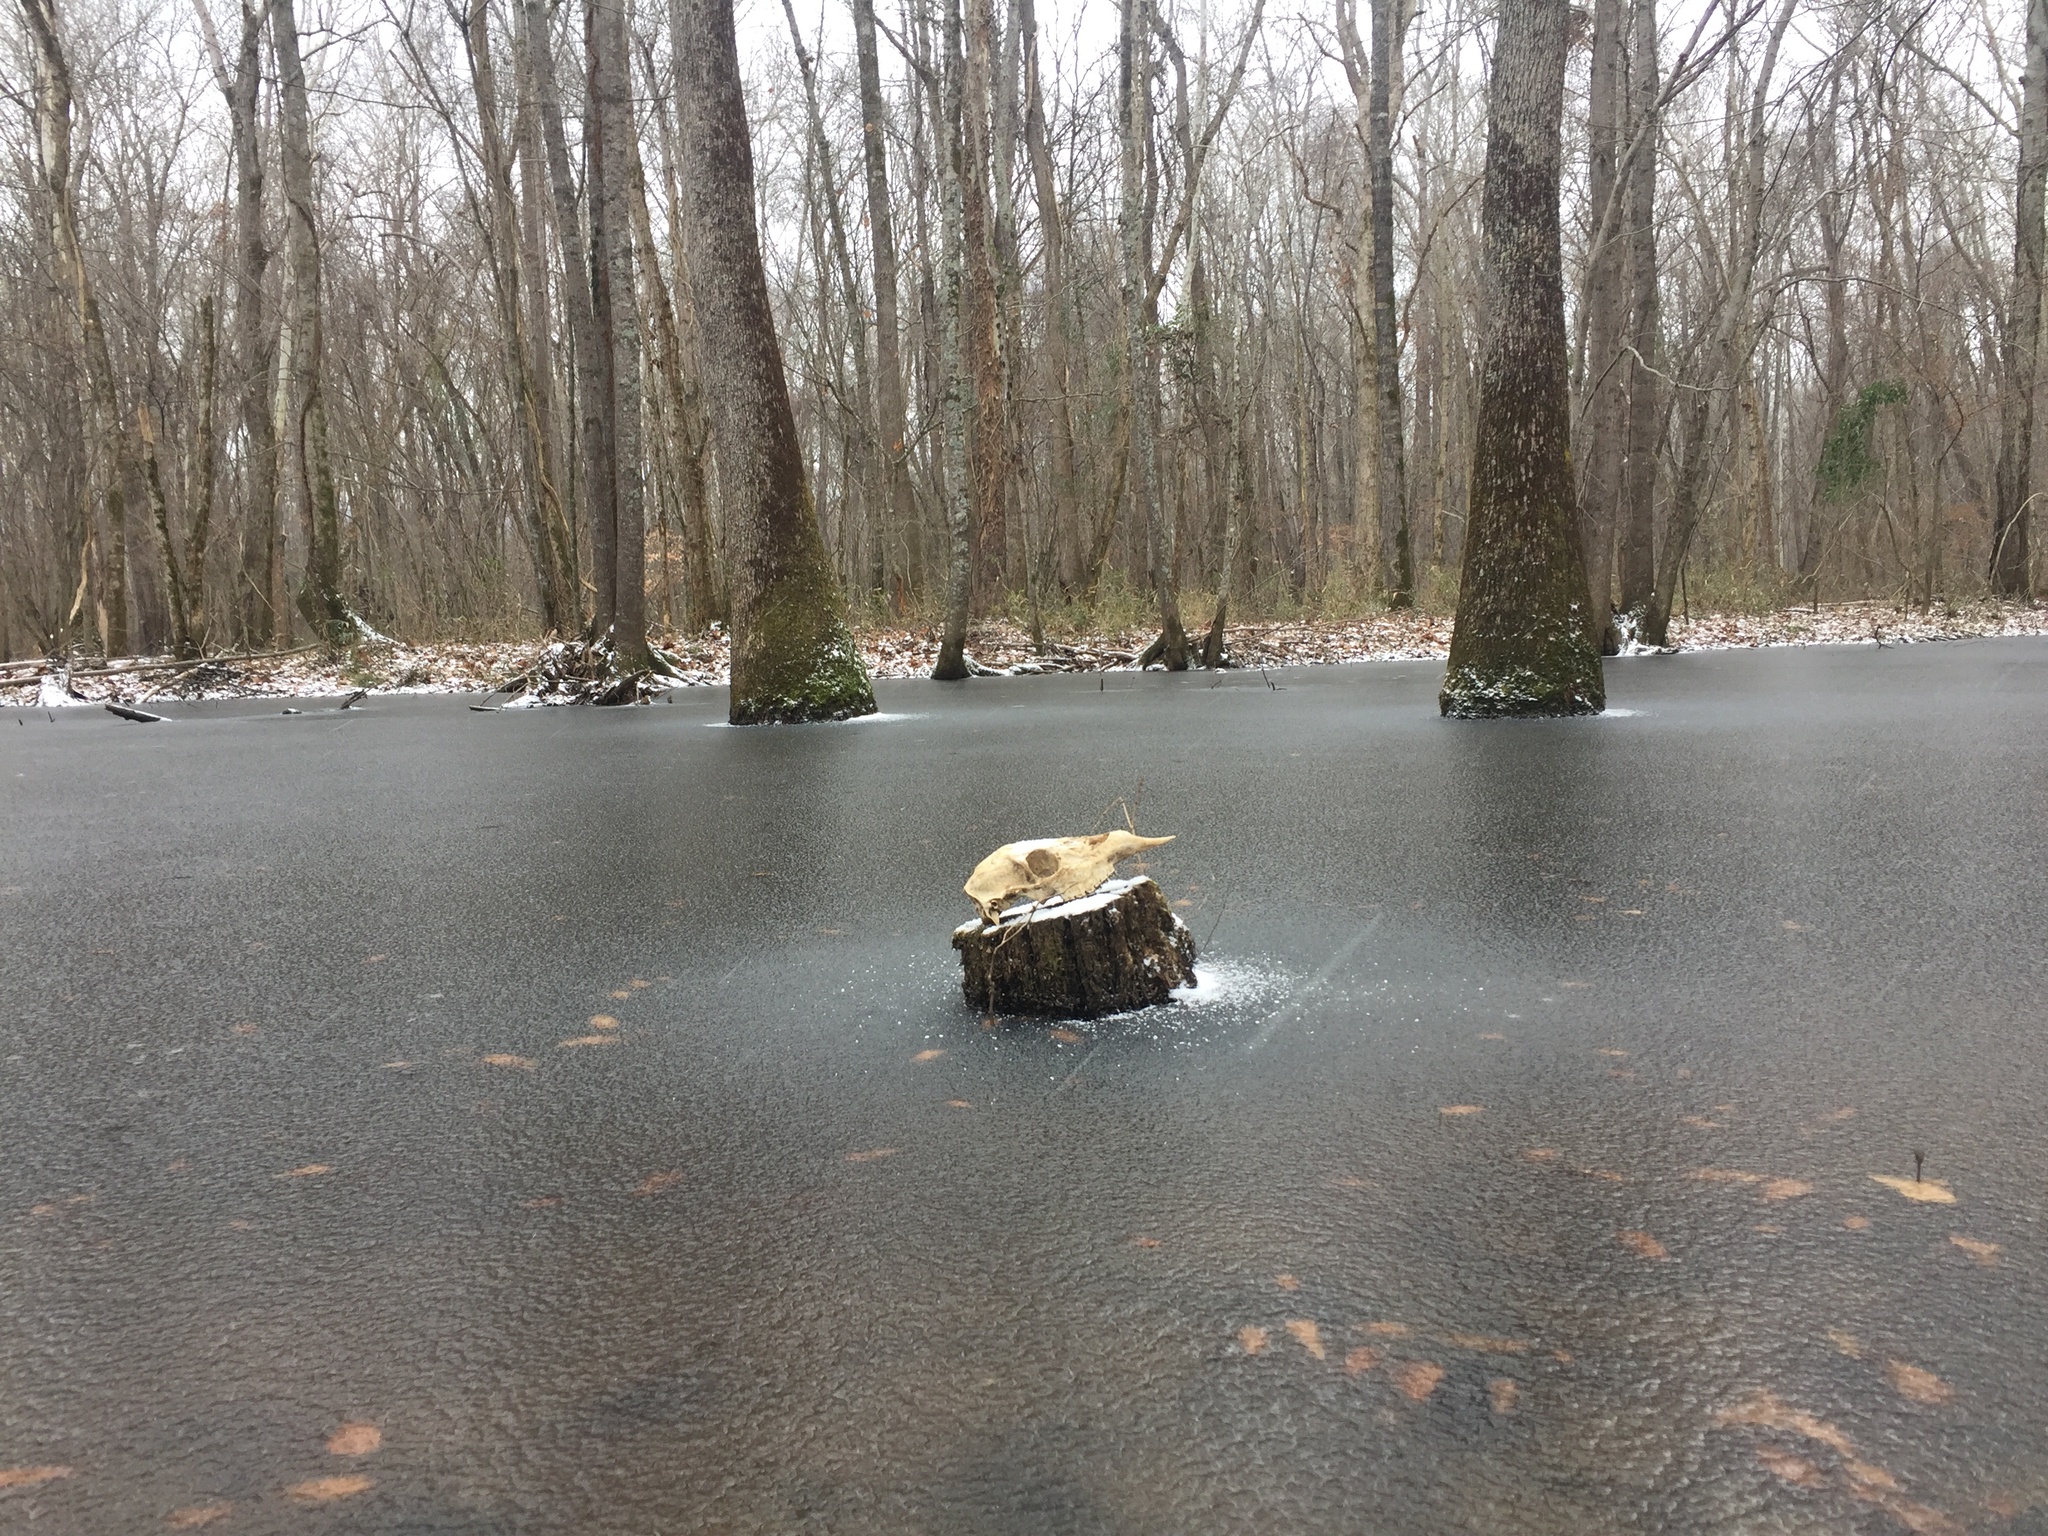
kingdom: Animalia
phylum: Chordata
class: Mammalia
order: Artiodactyla
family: Cervidae
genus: Odocoileus
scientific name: Odocoileus virginianus
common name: White-tailed deer
